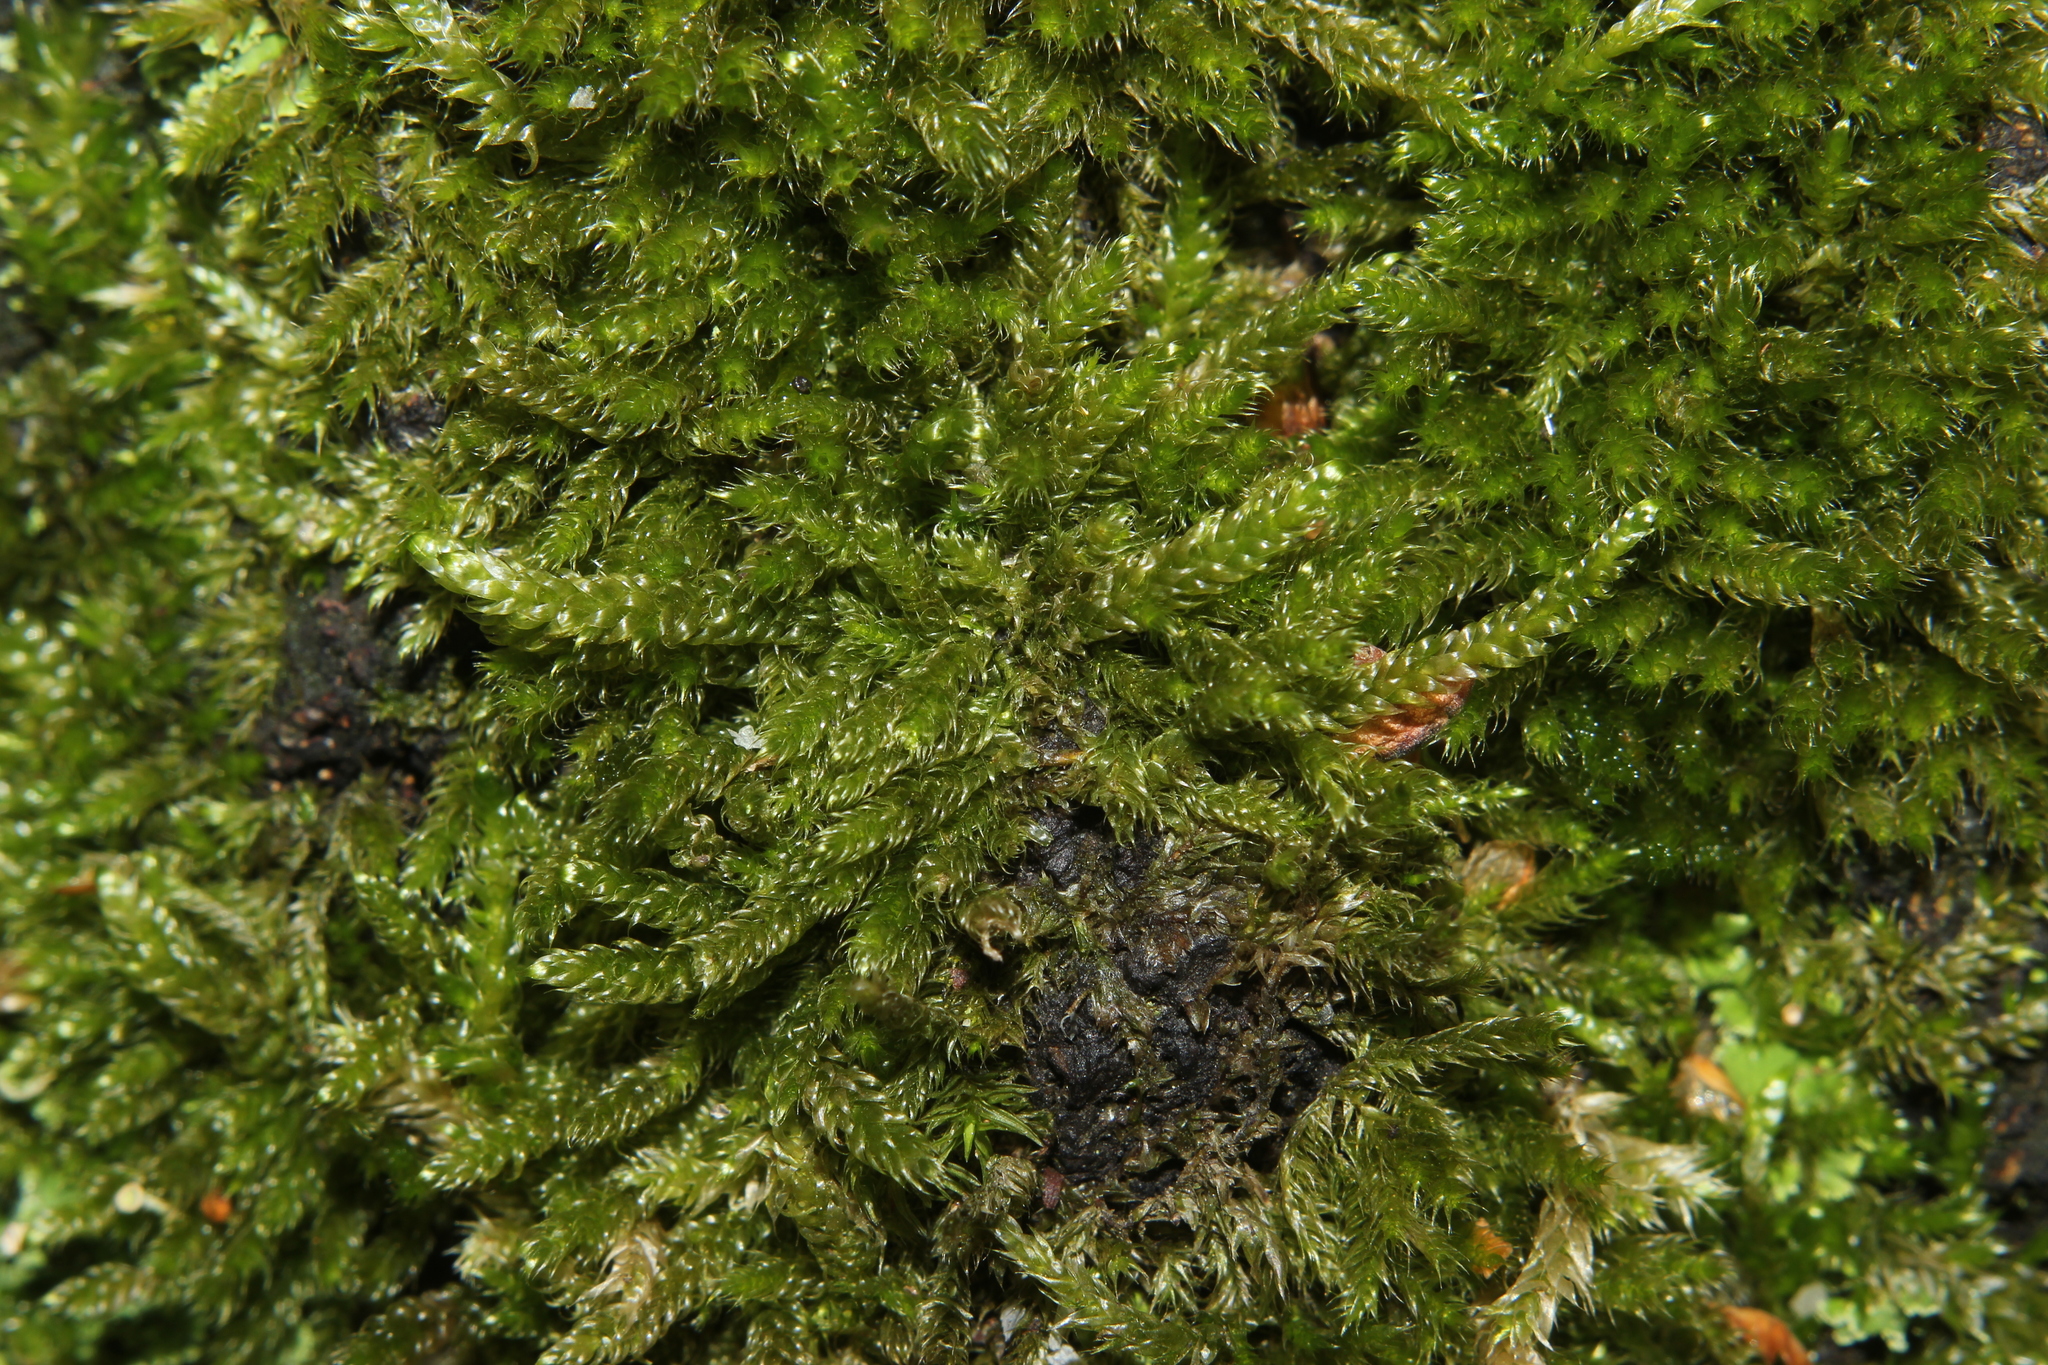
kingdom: Plantae
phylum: Bryophyta
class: Bryopsida
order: Hypnales
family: Hypnaceae
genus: Hypnum
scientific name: Hypnum cupressiforme
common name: Cypress-leaved plait-moss
